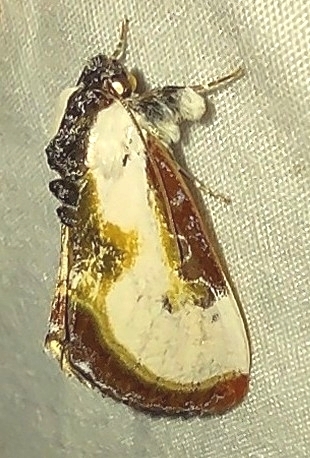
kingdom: Animalia
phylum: Arthropoda
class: Insecta
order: Lepidoptera
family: Noctuidae
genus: Eudryas
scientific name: Eudryas grata
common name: Beautiful wood-nymph
